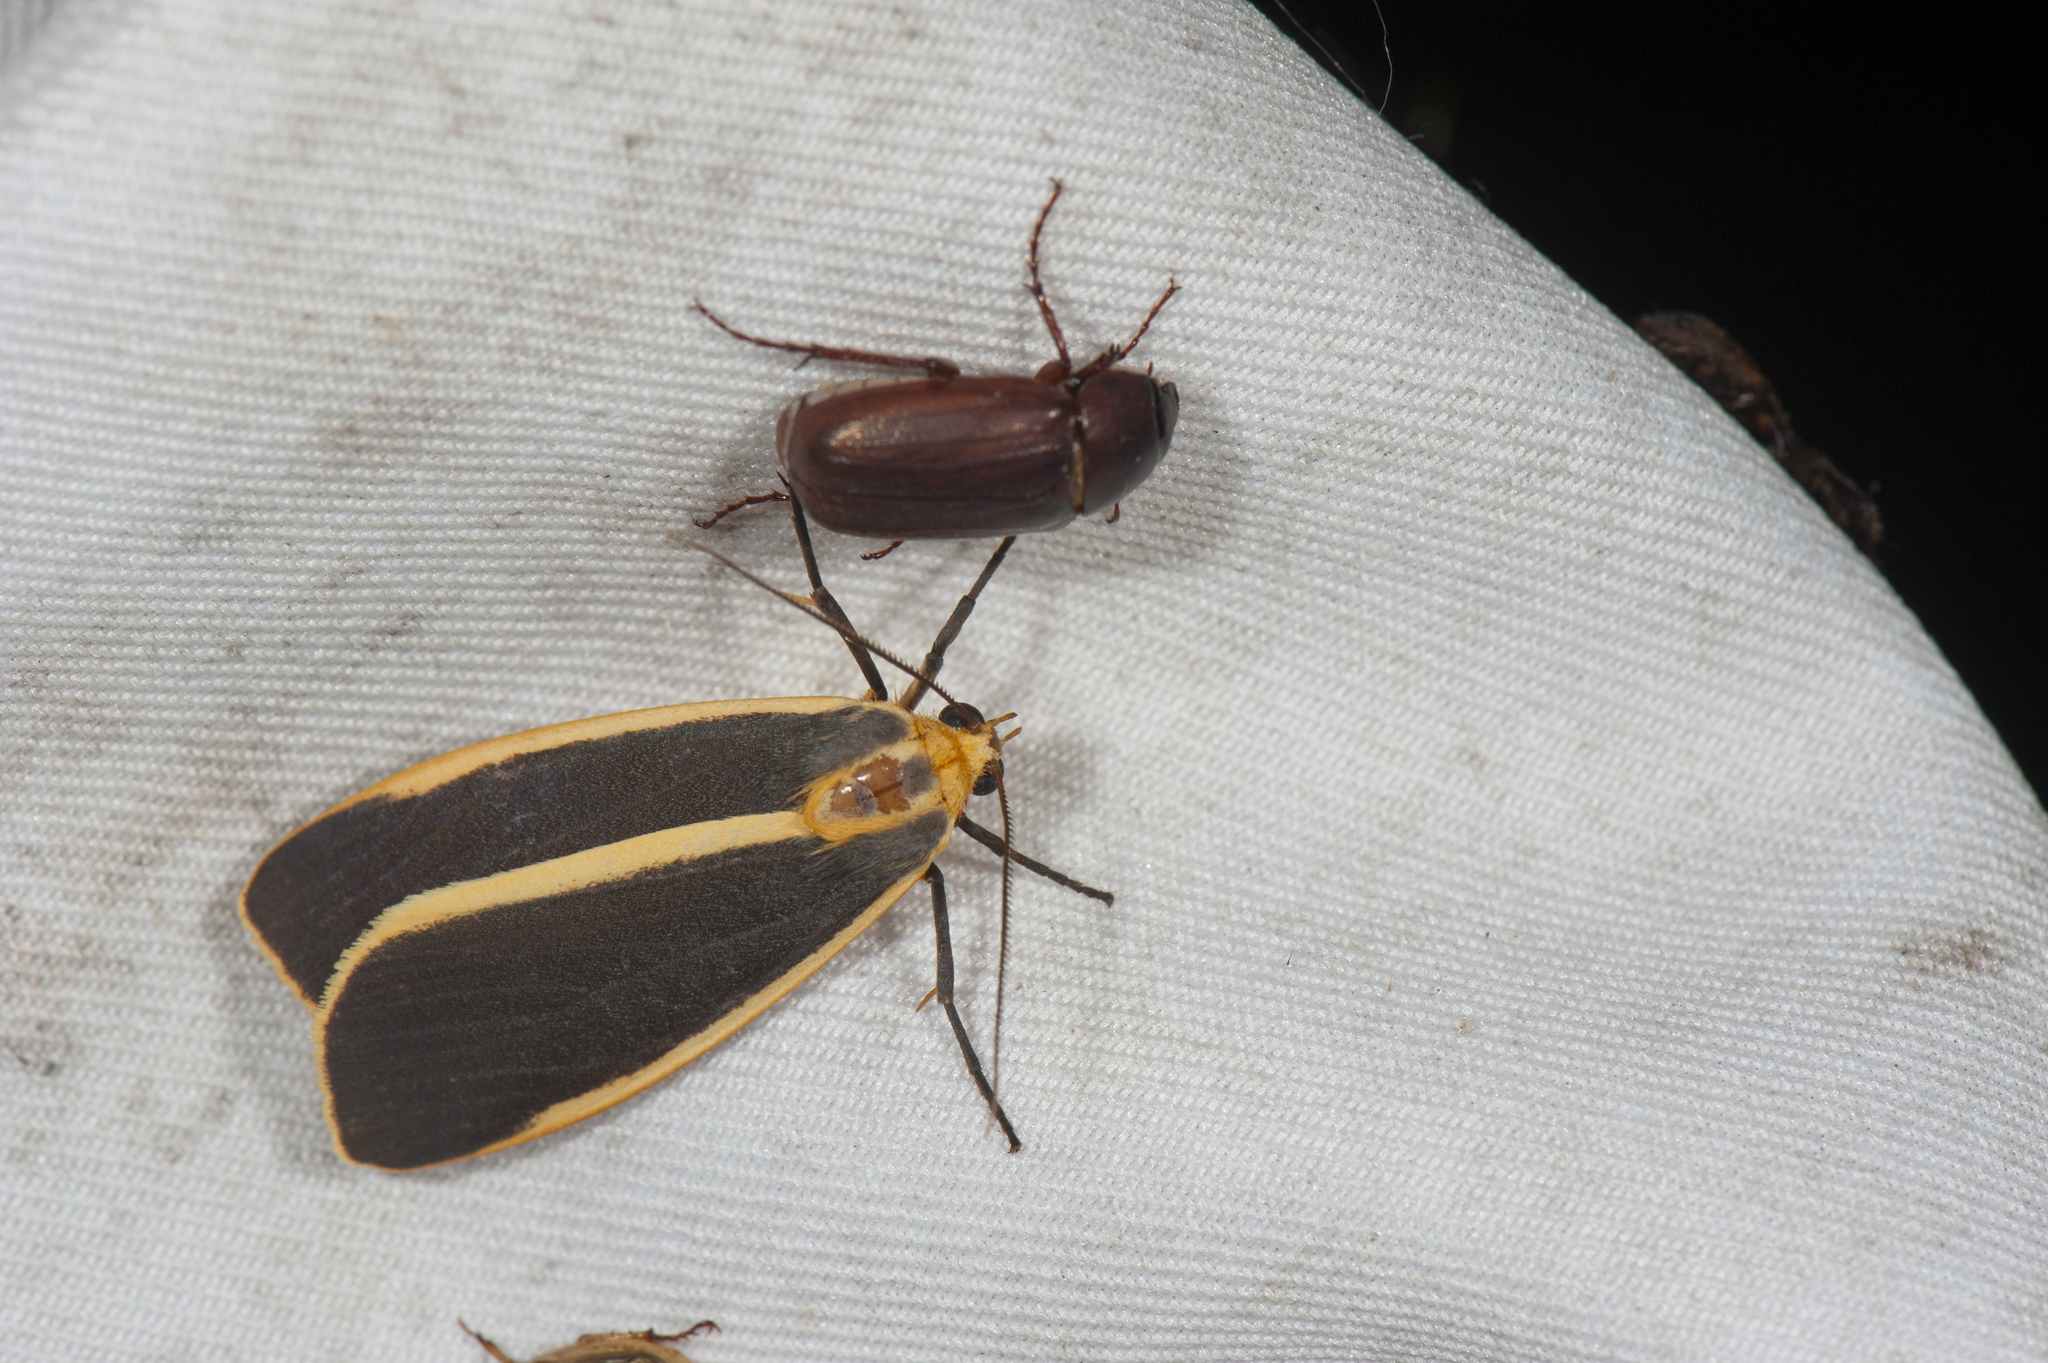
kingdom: Animalia
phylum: Arthropoda
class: Insecta
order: Lepidoptera
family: Erebidae
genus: Churinga
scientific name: Churinga virago
